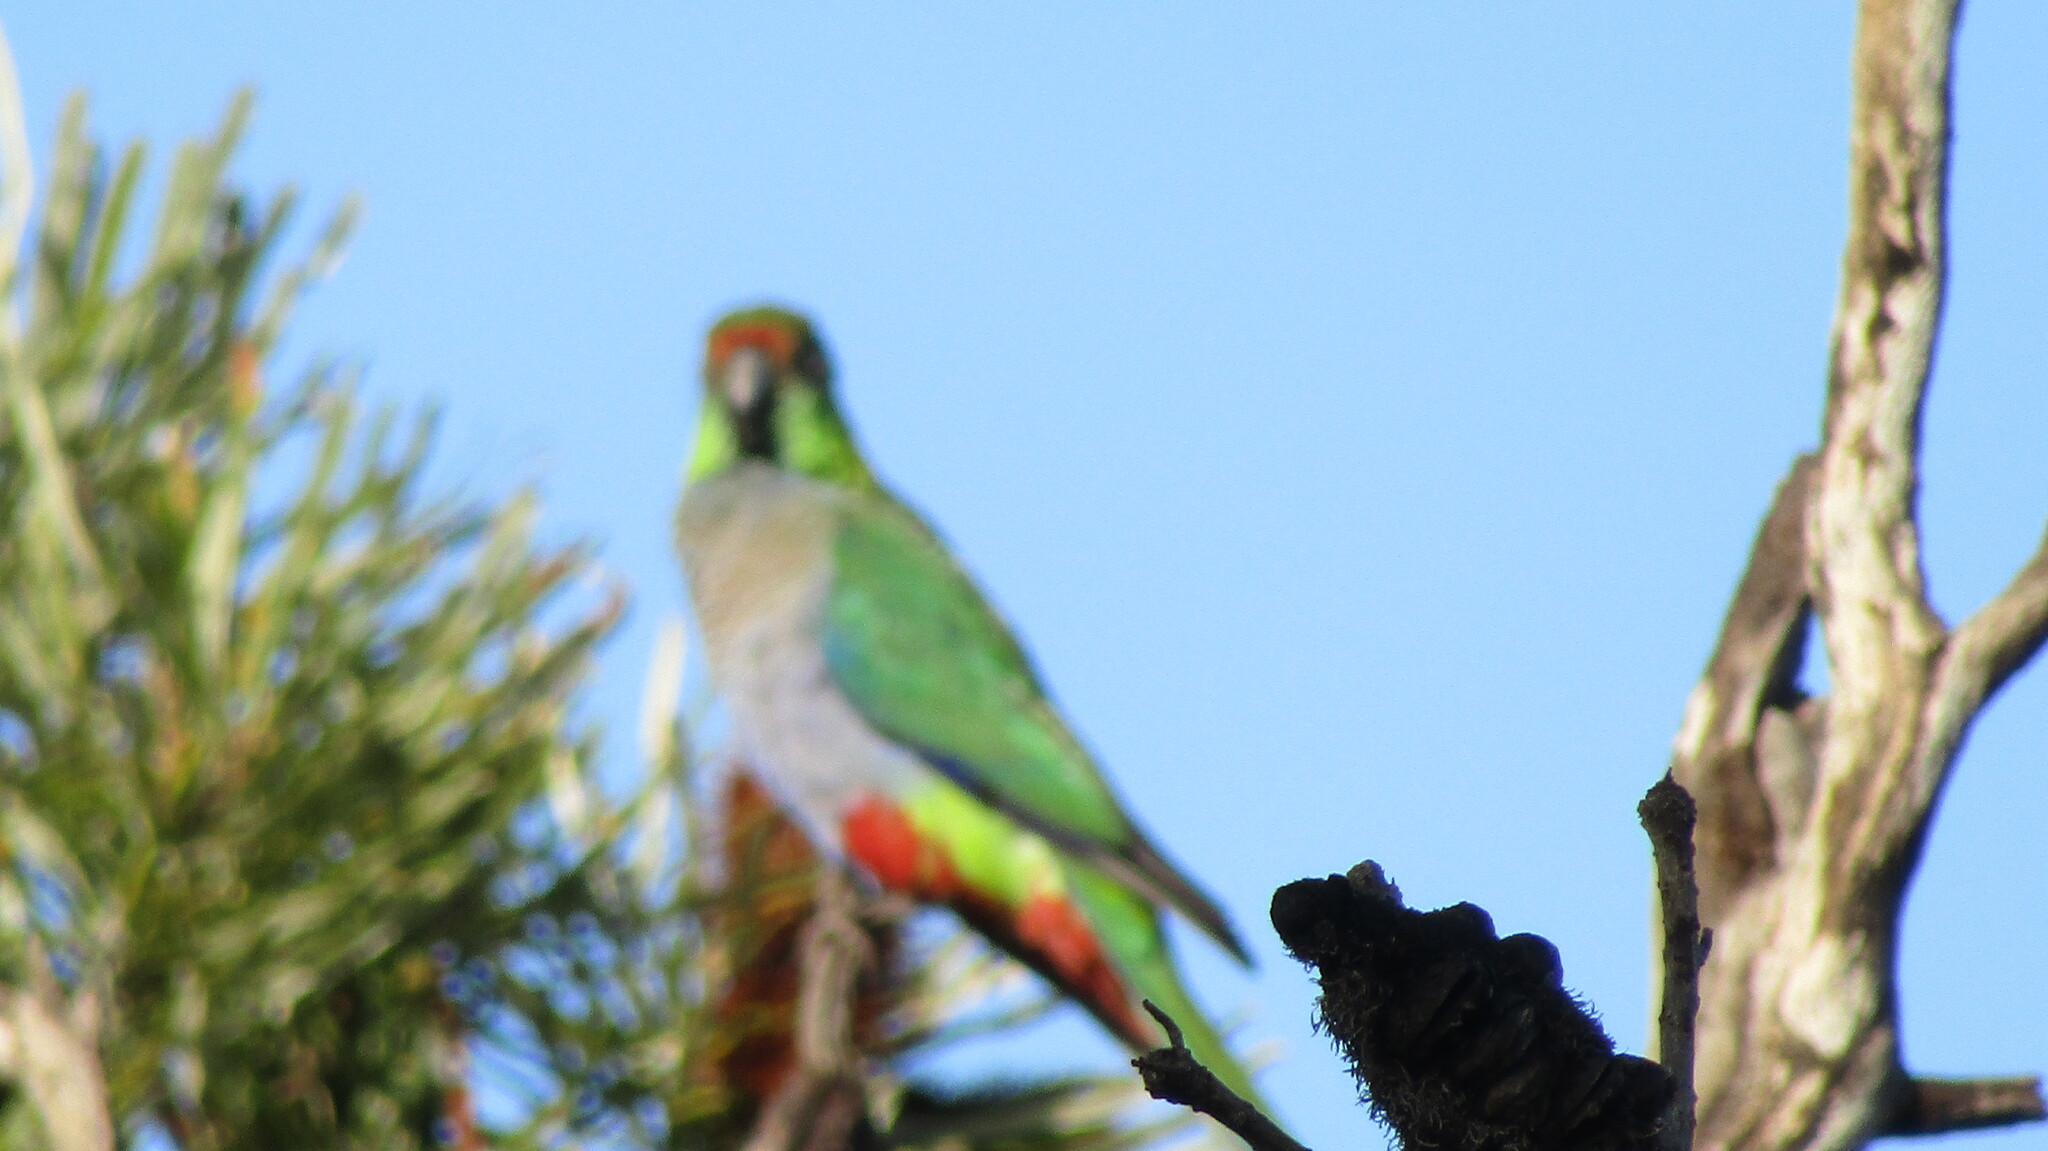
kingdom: Animalia
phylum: Chordata
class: Aves
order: Psittaciformes
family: Psittacidae
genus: Purpureicephalus
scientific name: Purpureicephalus spurius
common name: Red-capped parrot
